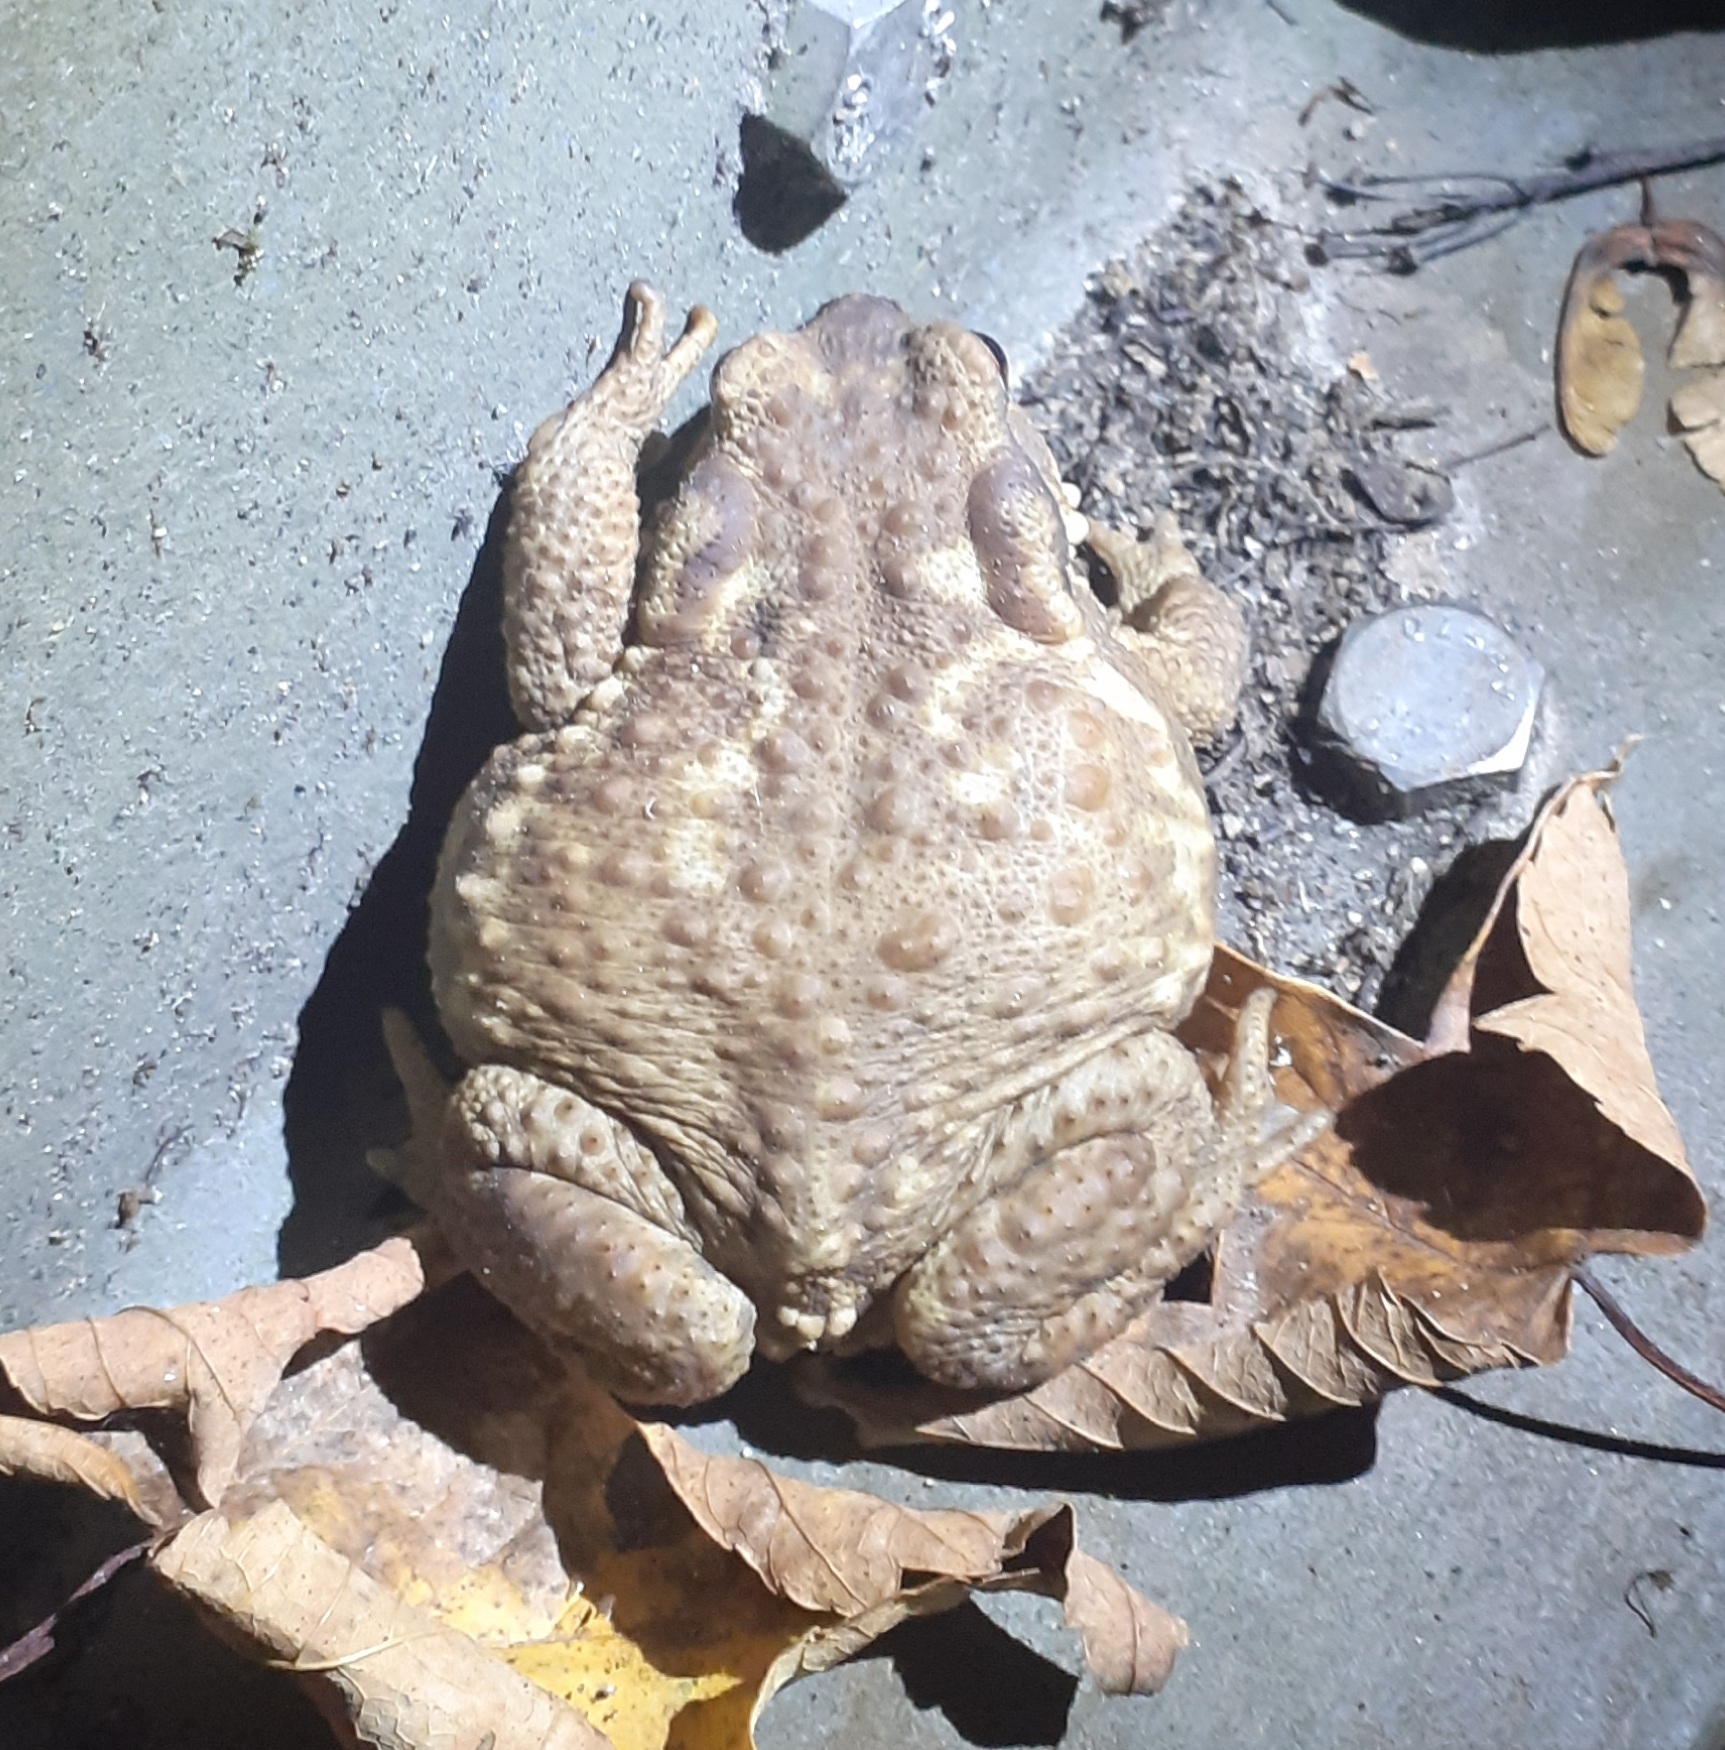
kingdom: Animalia
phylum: Chordata
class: Amphibia
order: Anura
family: Bufonidae
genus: Bufo
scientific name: Bufo spinosus
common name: Western common toad
